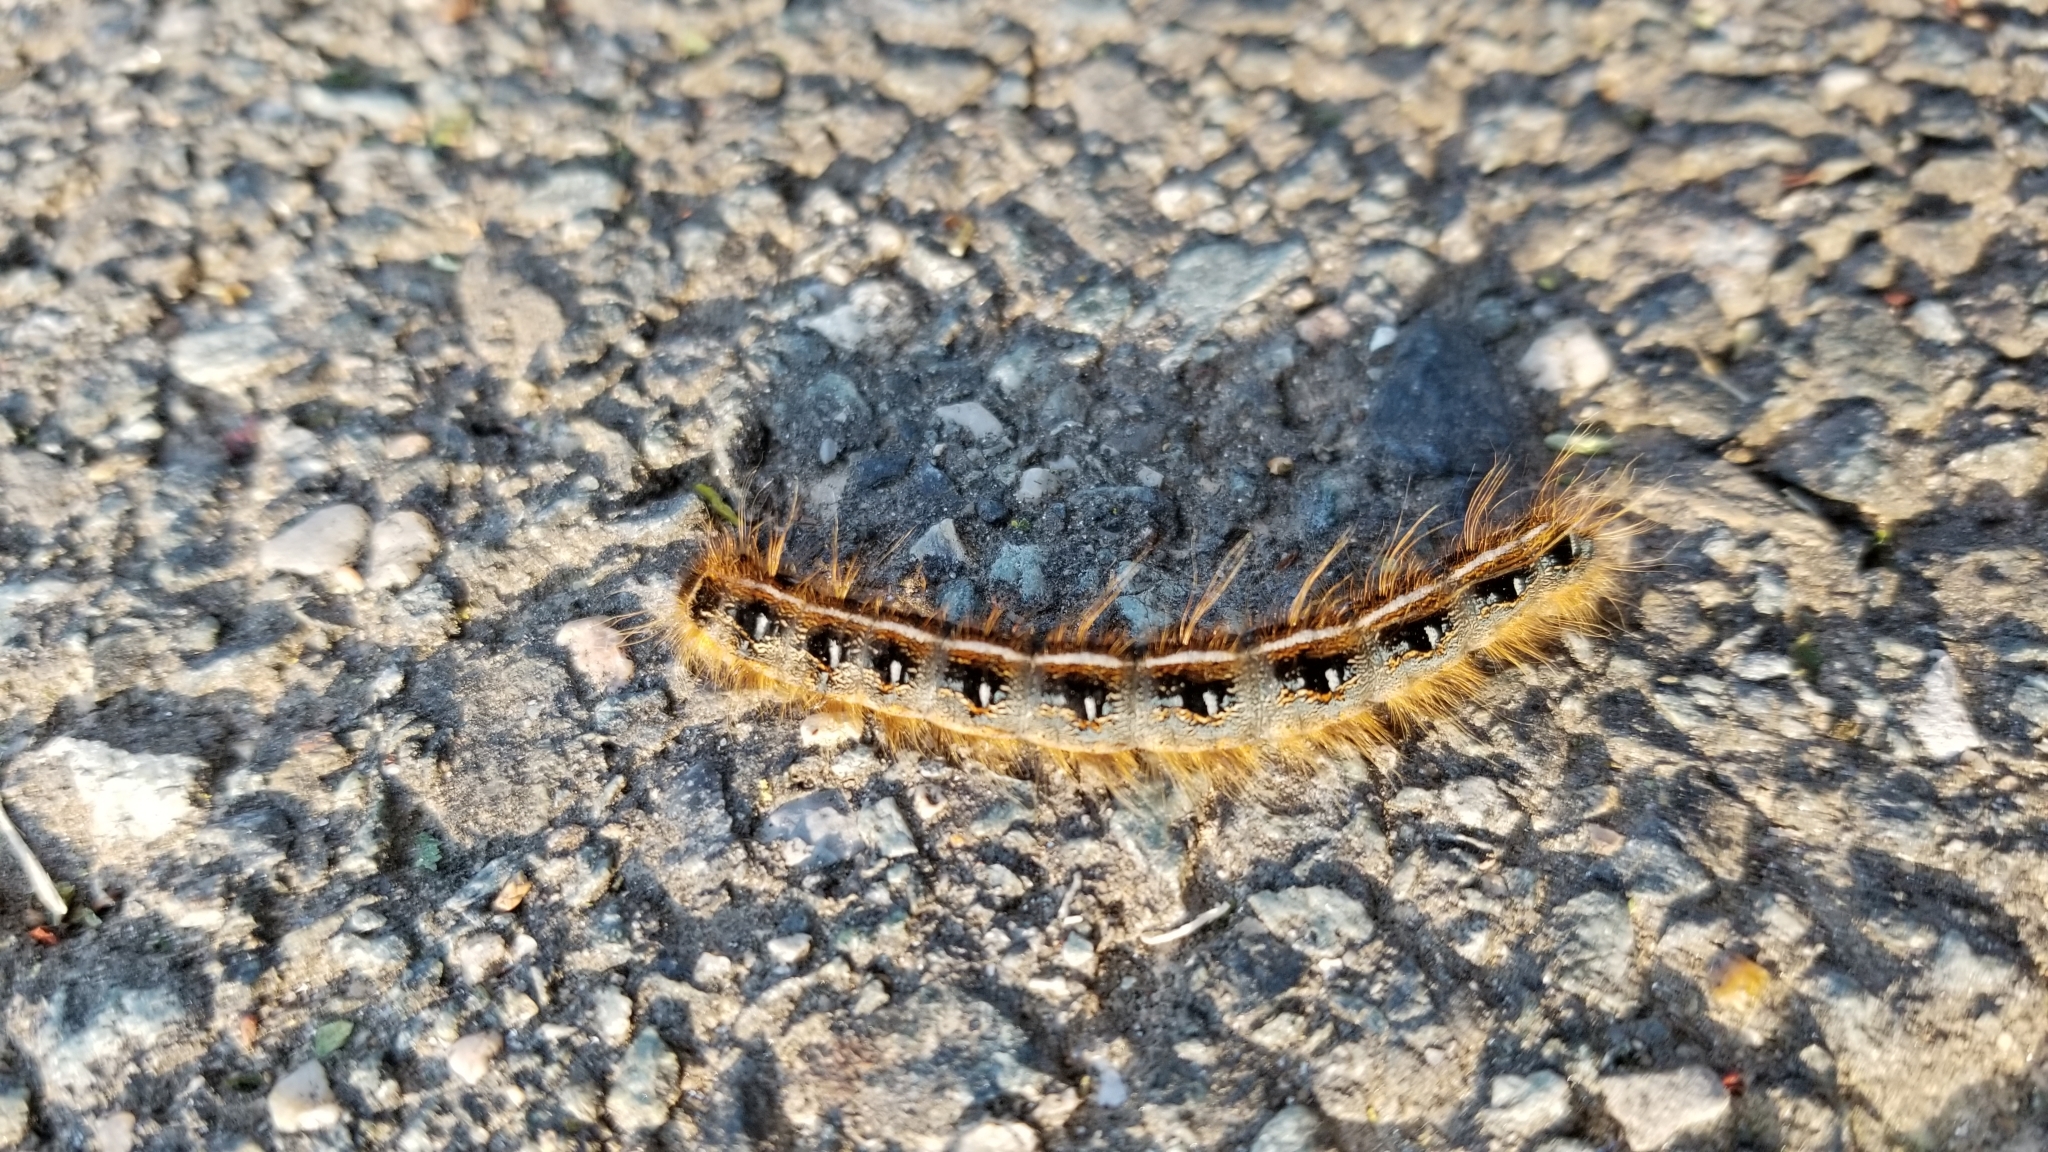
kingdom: Animalia
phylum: Arthropoda
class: Insecta
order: Lepidoptera
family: Lasiocampidae
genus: Malacosoma
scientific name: Malacosoma americana
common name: Eastern tent caterpillar moth
